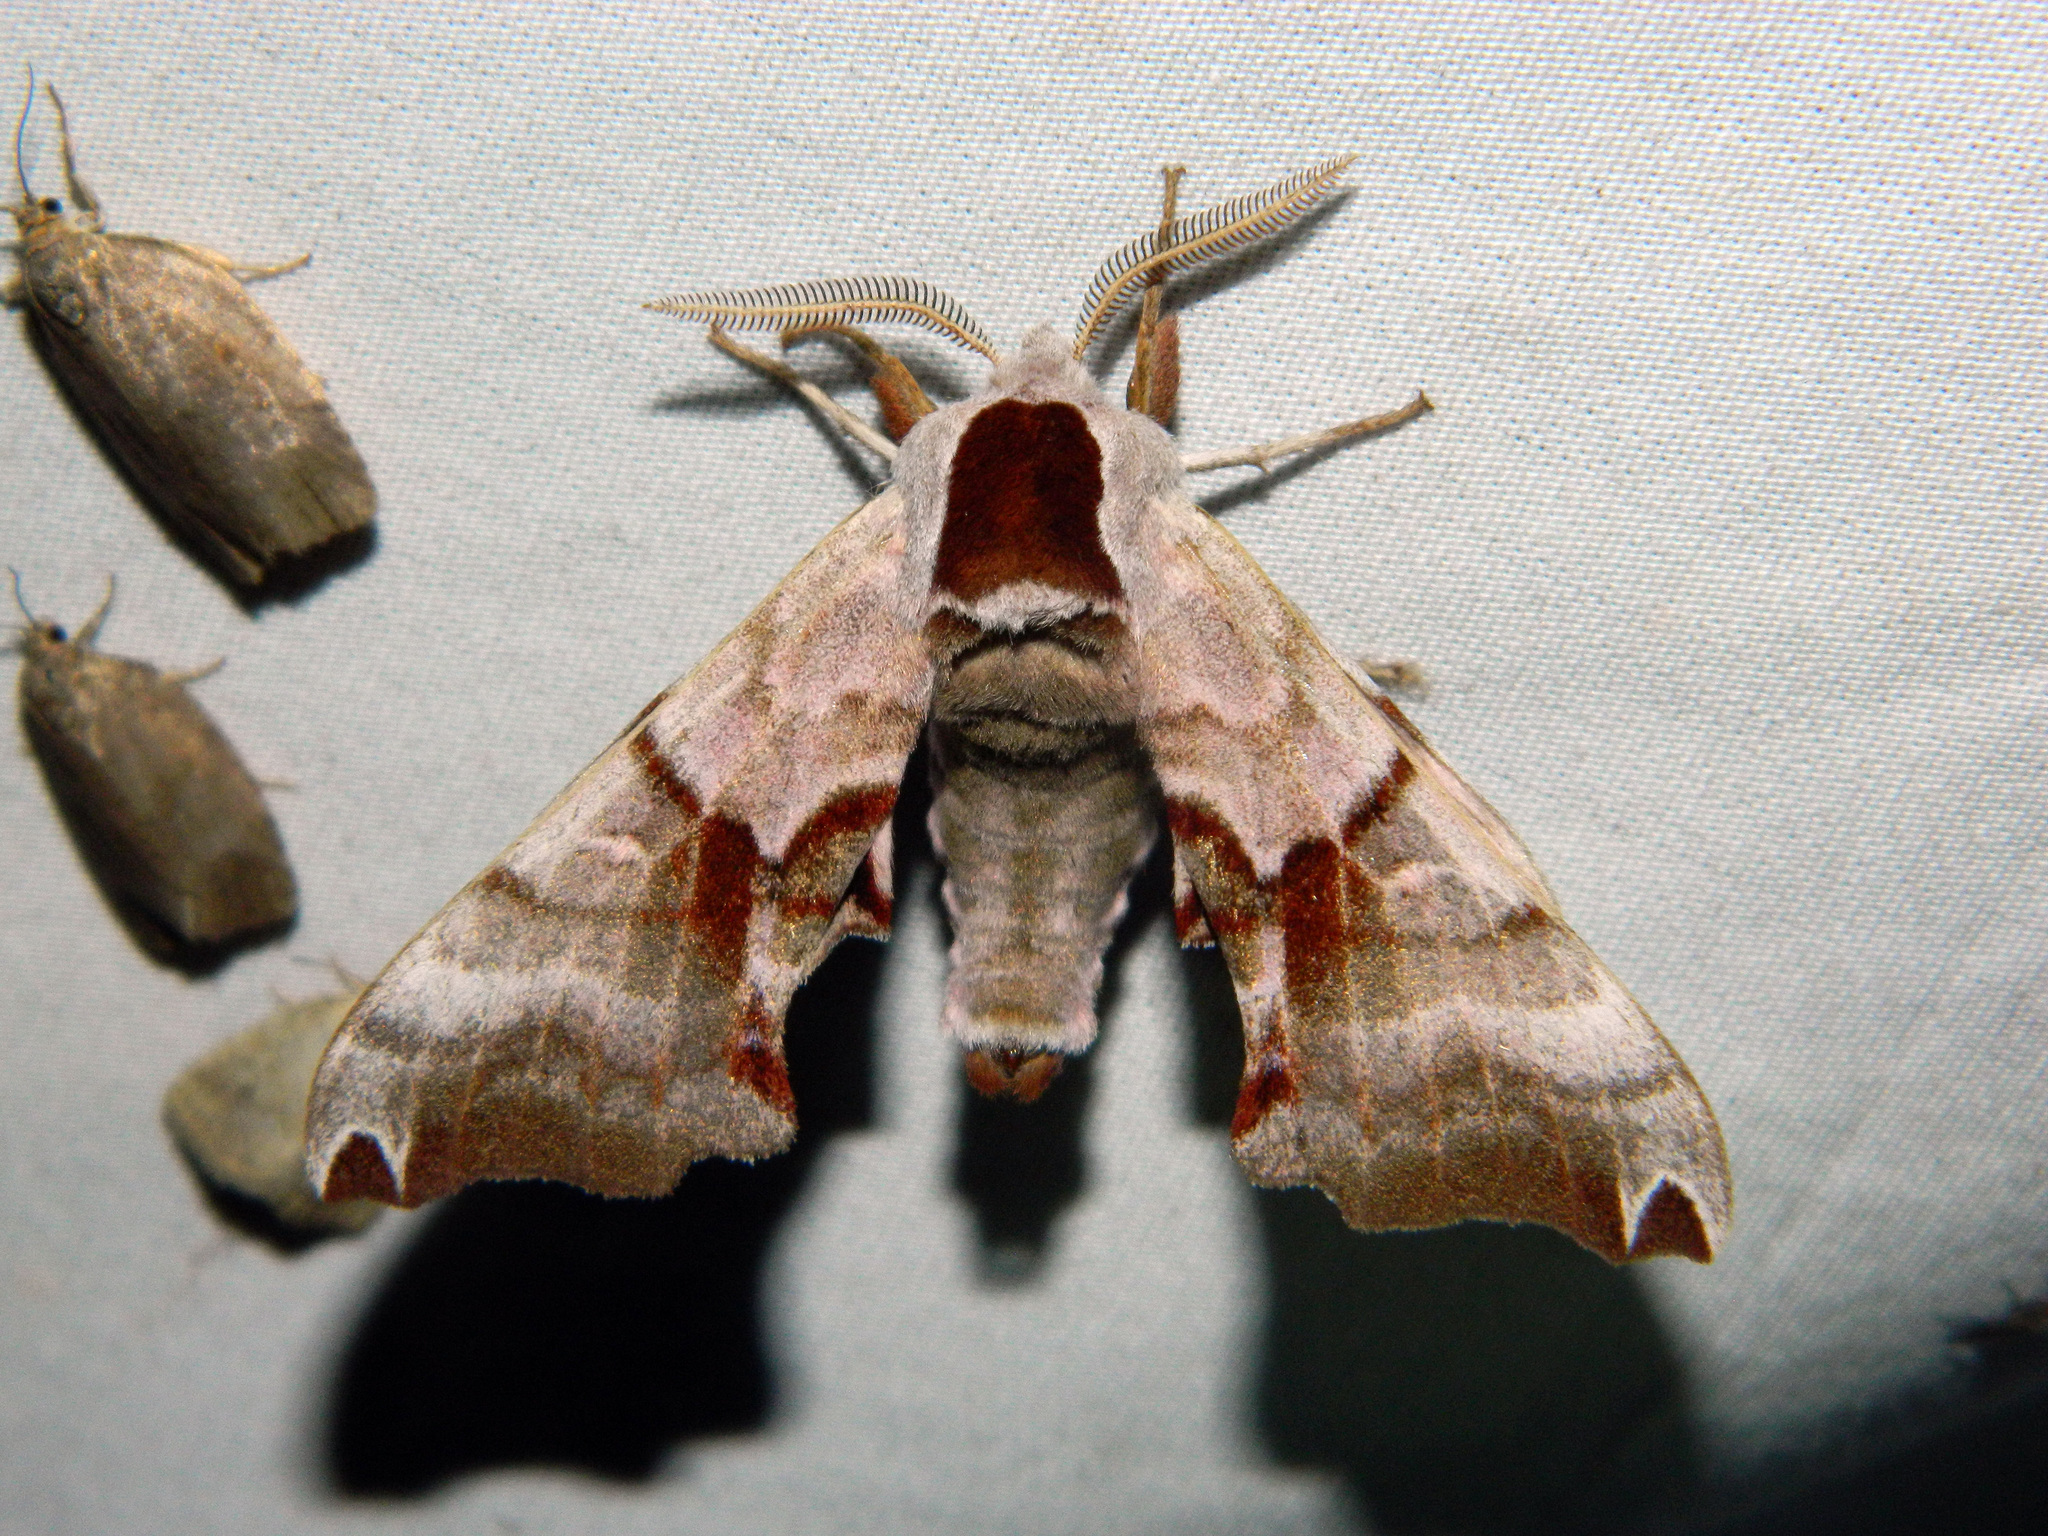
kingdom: Animalia
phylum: Arthropoda
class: Insecta
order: Lepidoptera
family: Sphingidae
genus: Smerinthus
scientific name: Smerinthus jamaicensis
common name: Twin spotted sphinx
